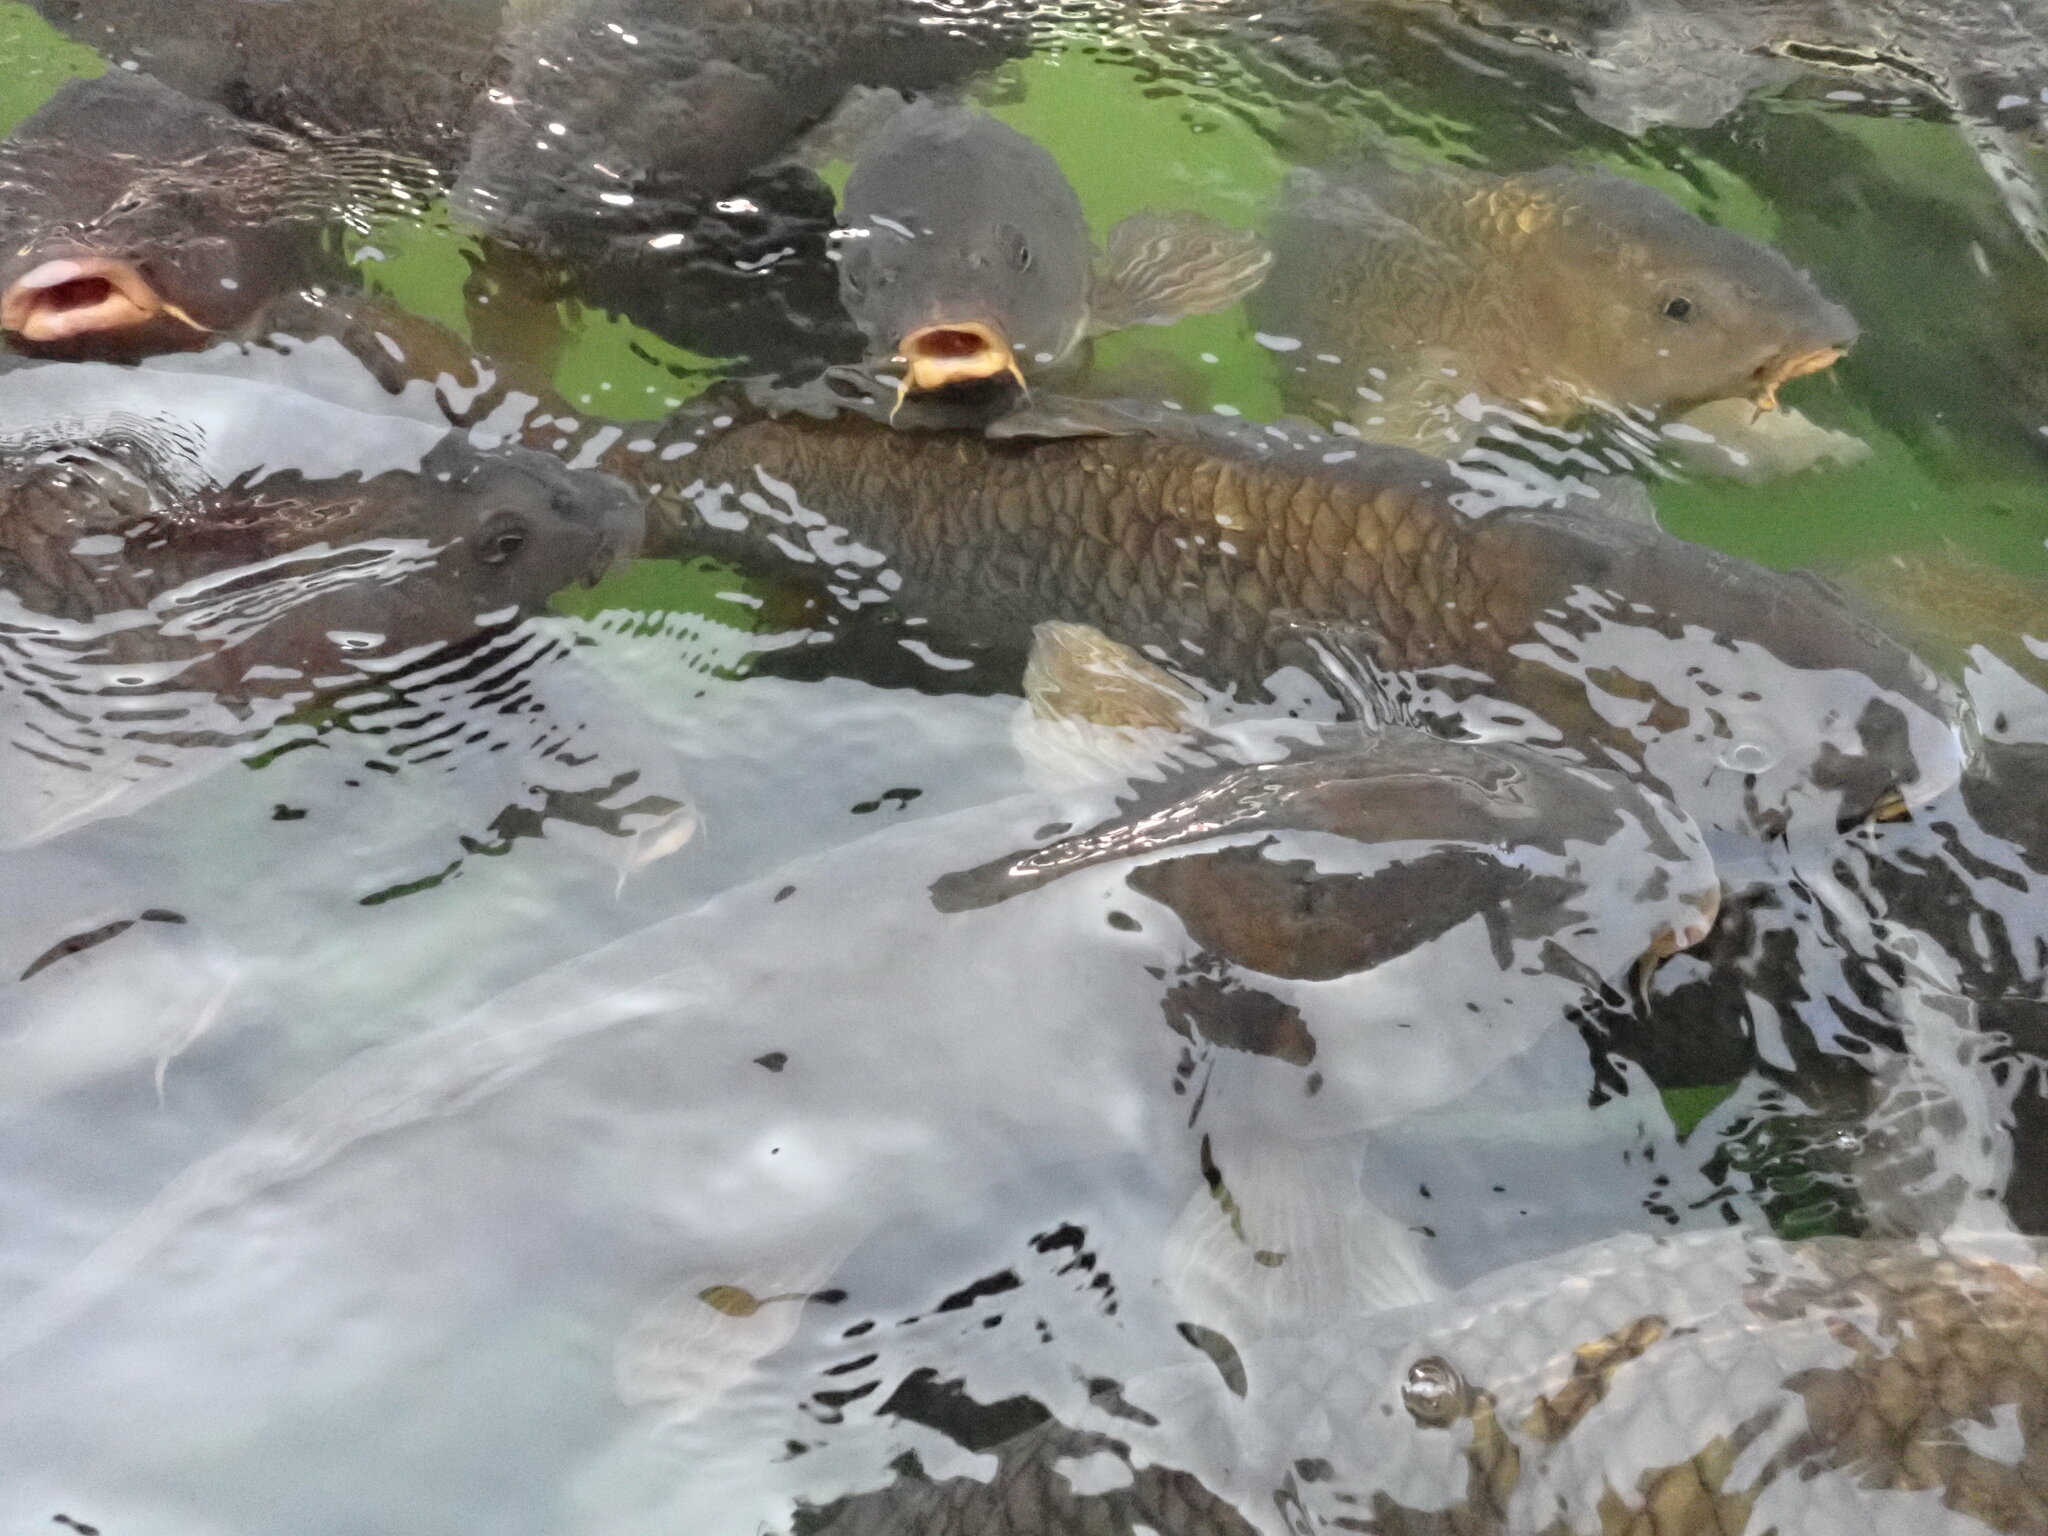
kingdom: Animalia
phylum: Chordata
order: Cypriniformes
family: Cyprinidae
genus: Cyprinus
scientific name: Cyprinus carpio
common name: Common carp
